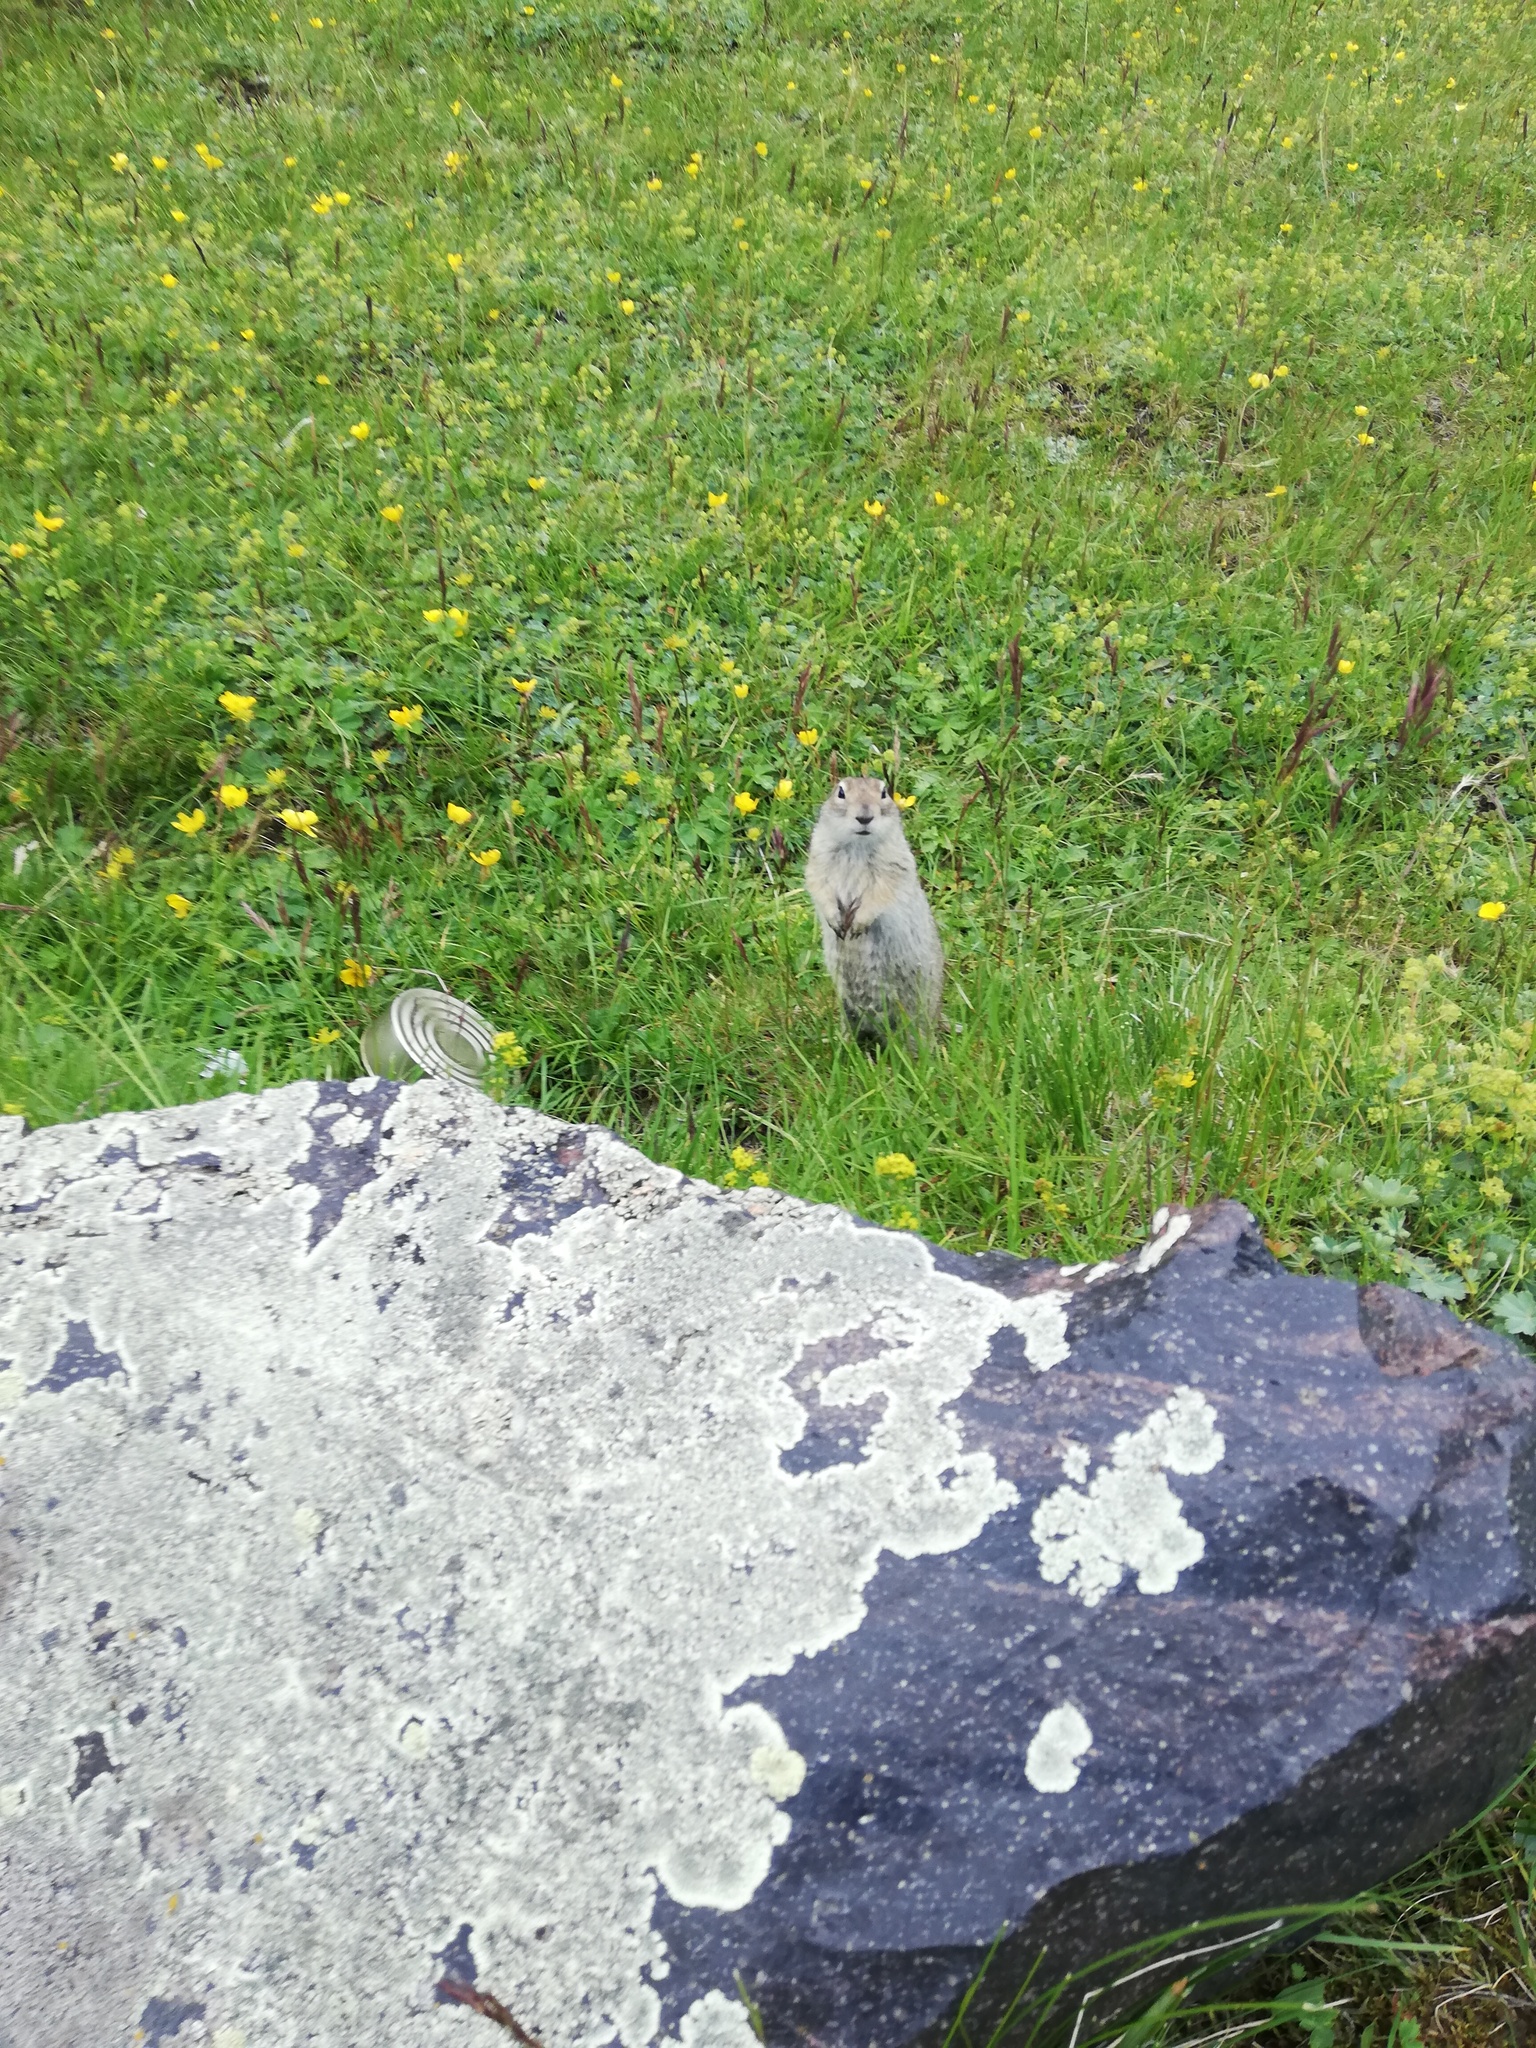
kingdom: Animalia
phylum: Chordata
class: Mammalia
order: Rodentia
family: Sciuridae
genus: Spermophilus
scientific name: Spermophilus musicus
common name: Caucasian mountain ground squirrel
